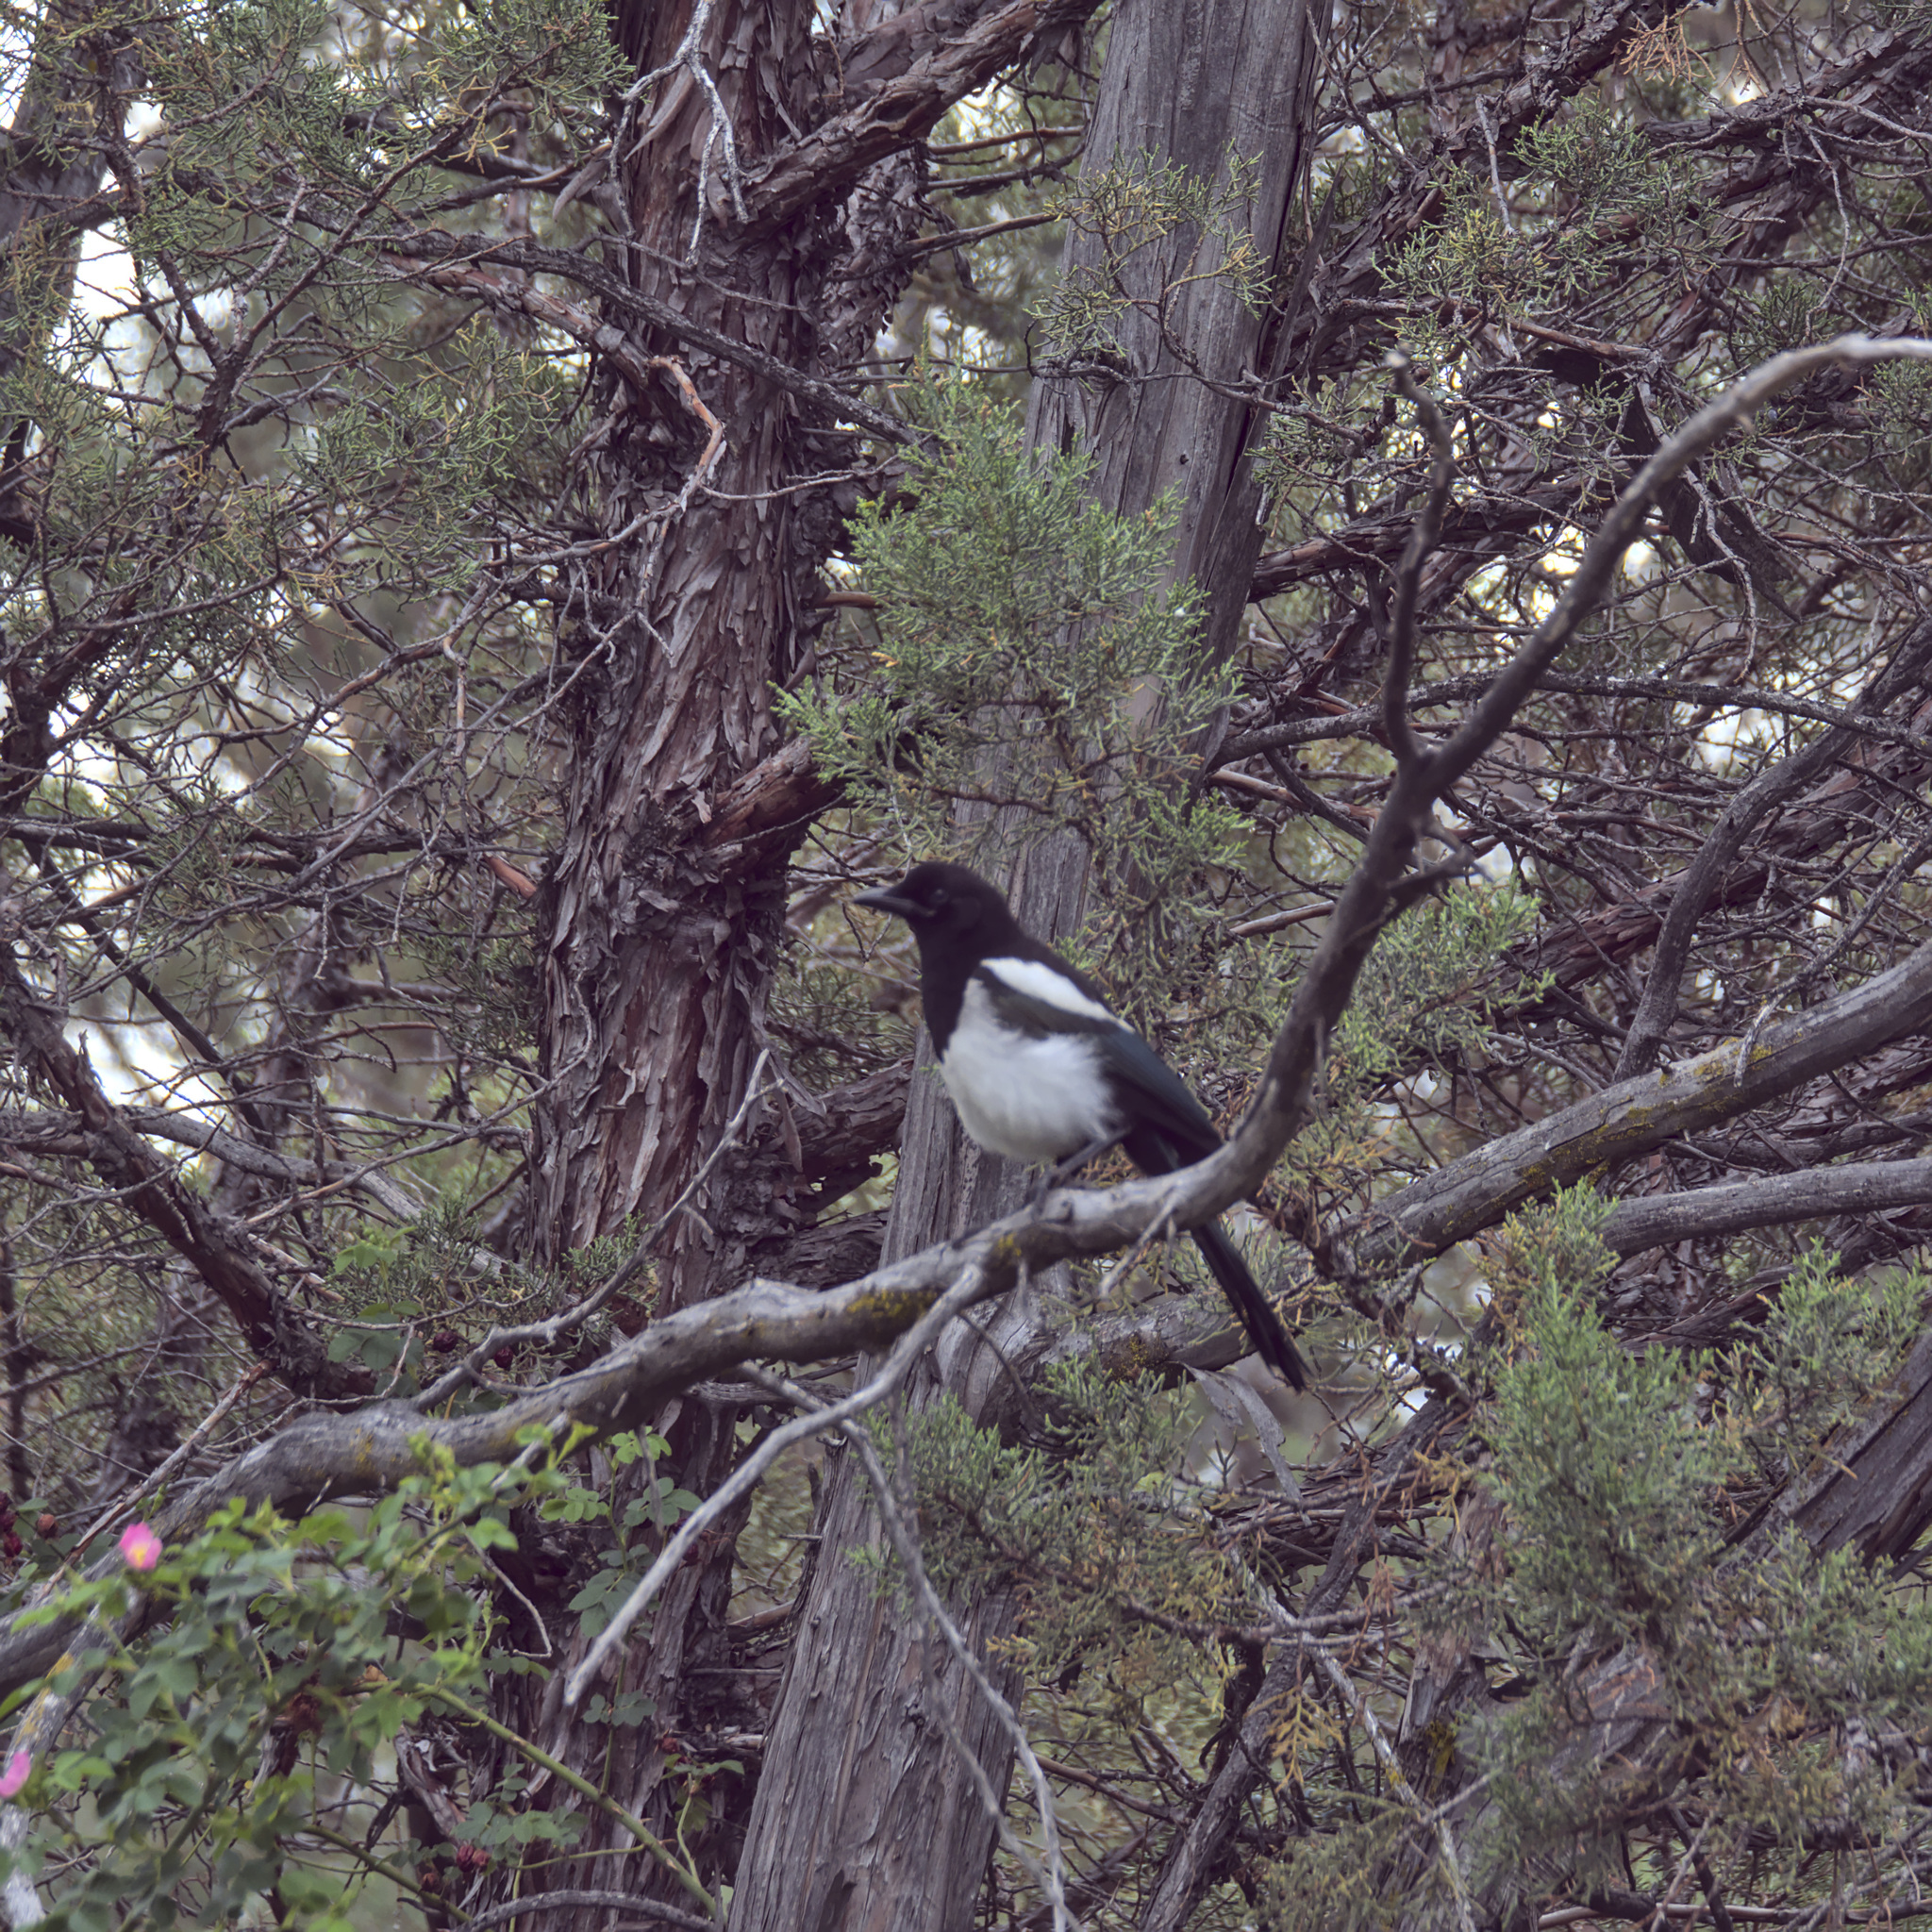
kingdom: Animalia
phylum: Chordata
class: Aves
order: Passeriformes
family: Corvidae
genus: Pica
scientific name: Pica hudsonia
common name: Black-billed magpie
